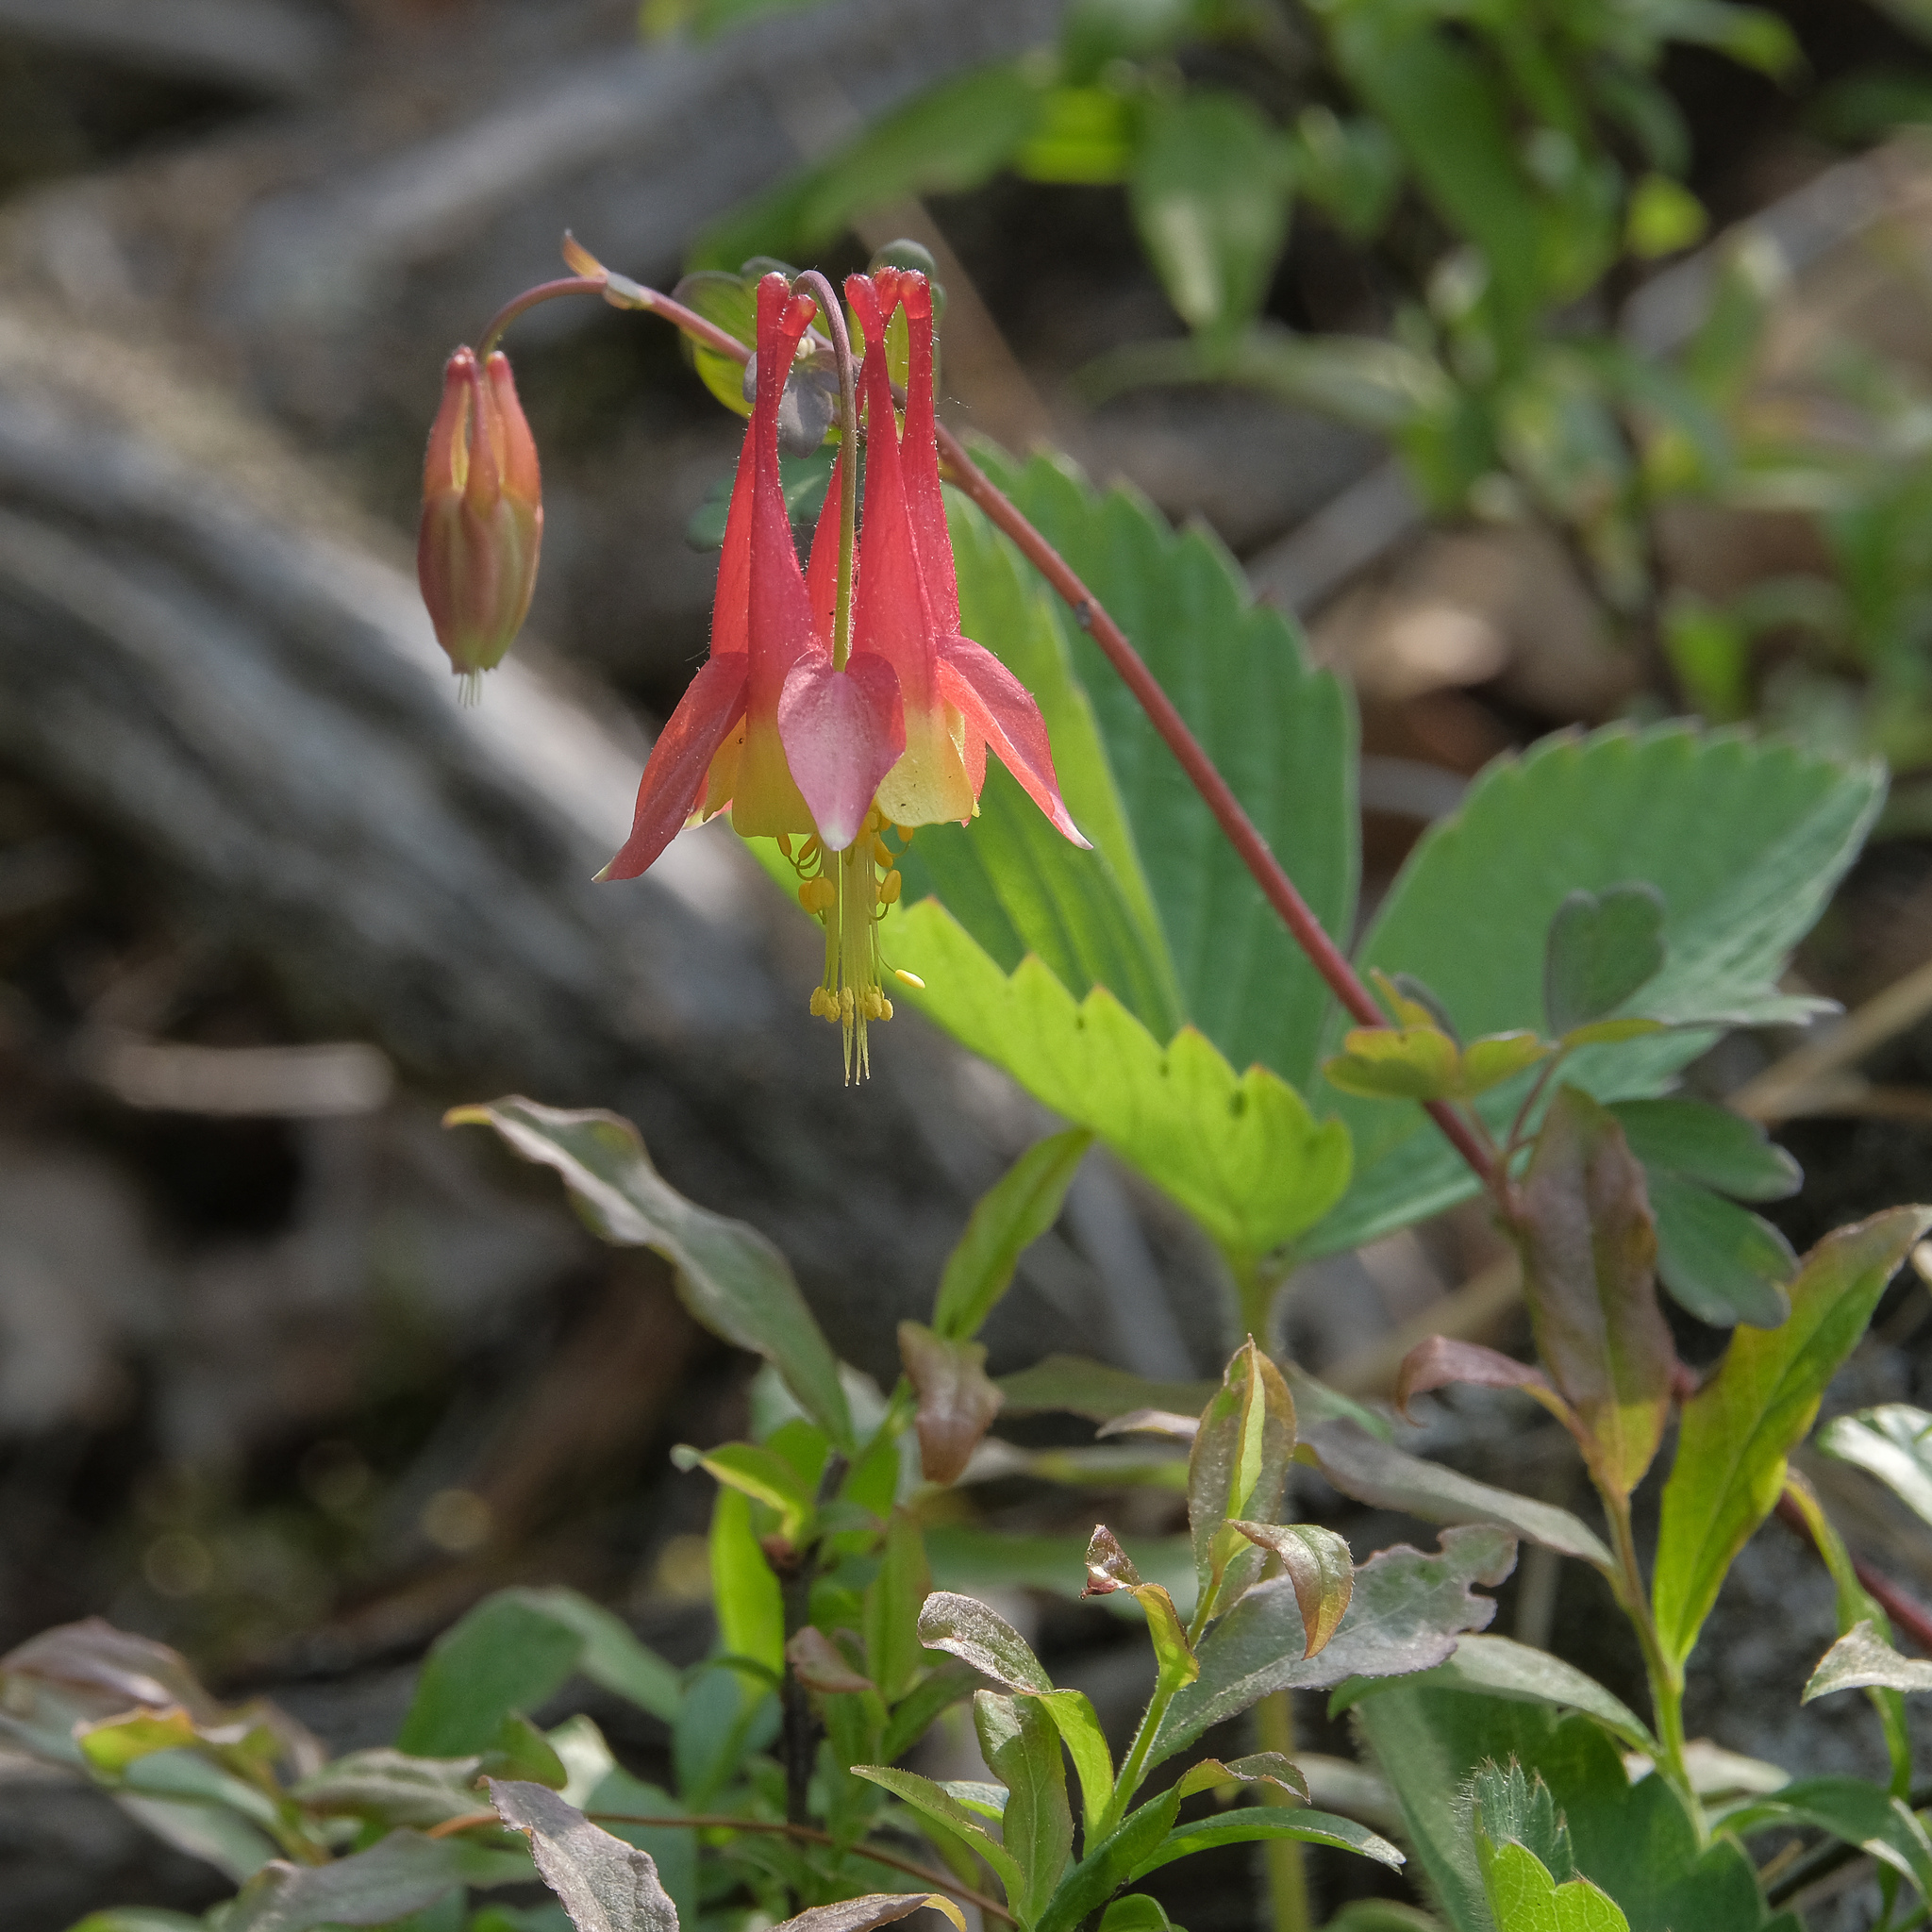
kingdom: Plantae
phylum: Tracheophyta
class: Magnoliopsida
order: Ranunculales
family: Ranunculaceae
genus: Aquilegia
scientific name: Aquilegia canadensis
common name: American columbine
